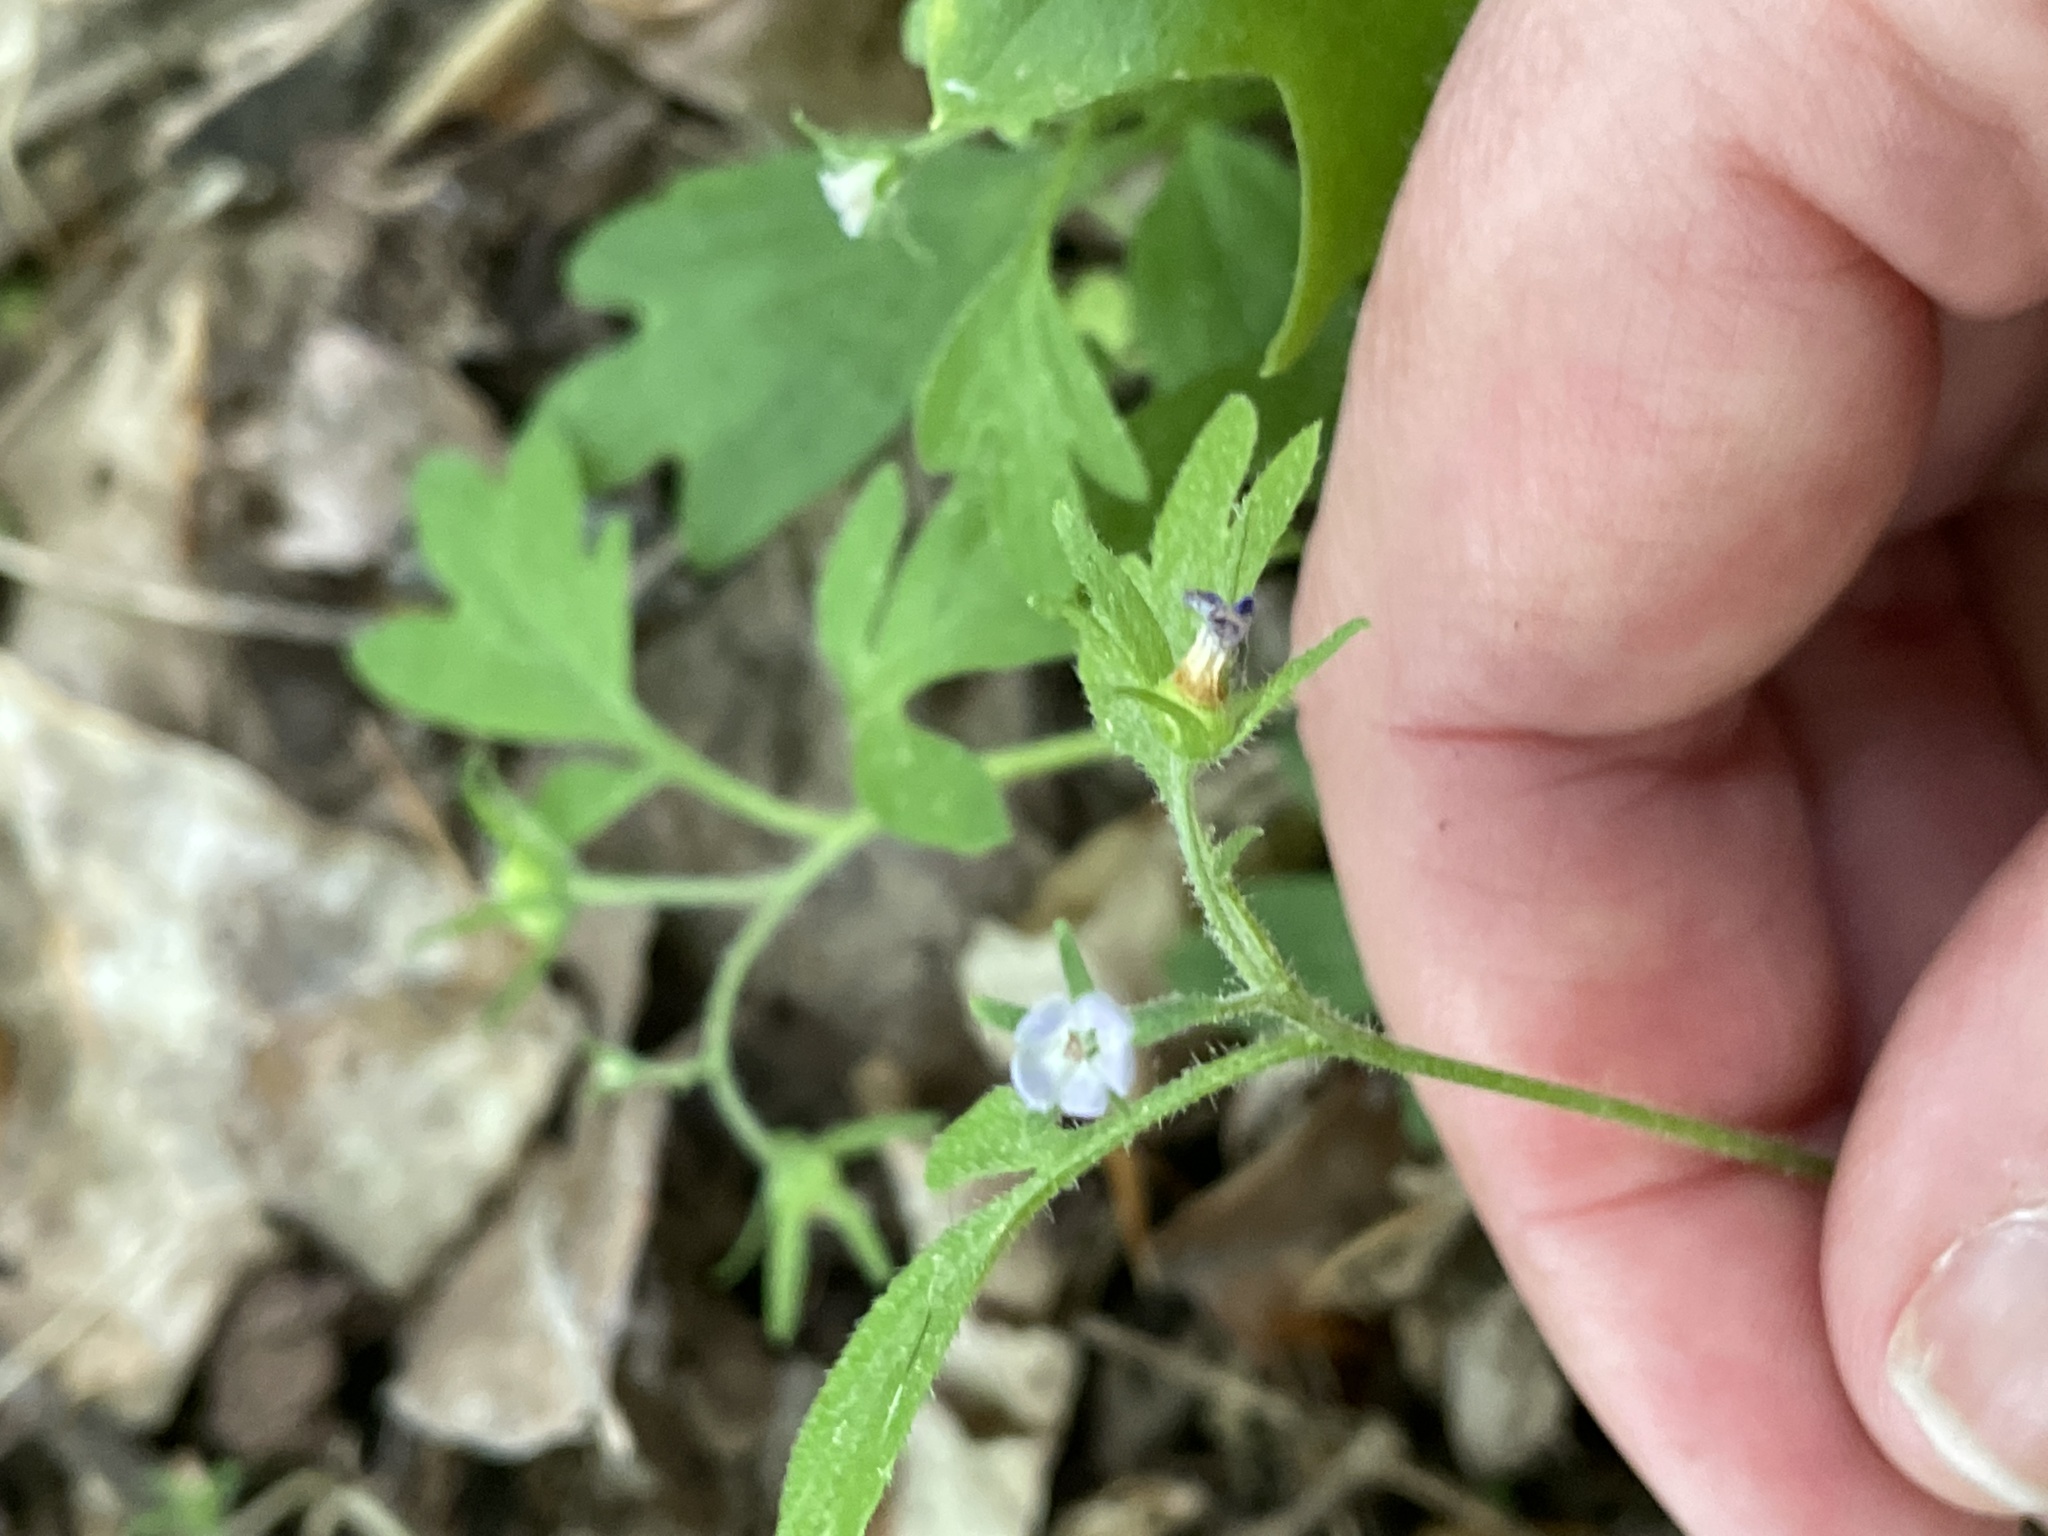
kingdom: Plantae
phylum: Tracheophyta
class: Magnoliopsida
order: Boraginales
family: Hydrophyllaceae
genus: Phacelia
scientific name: Phacelia covillei
